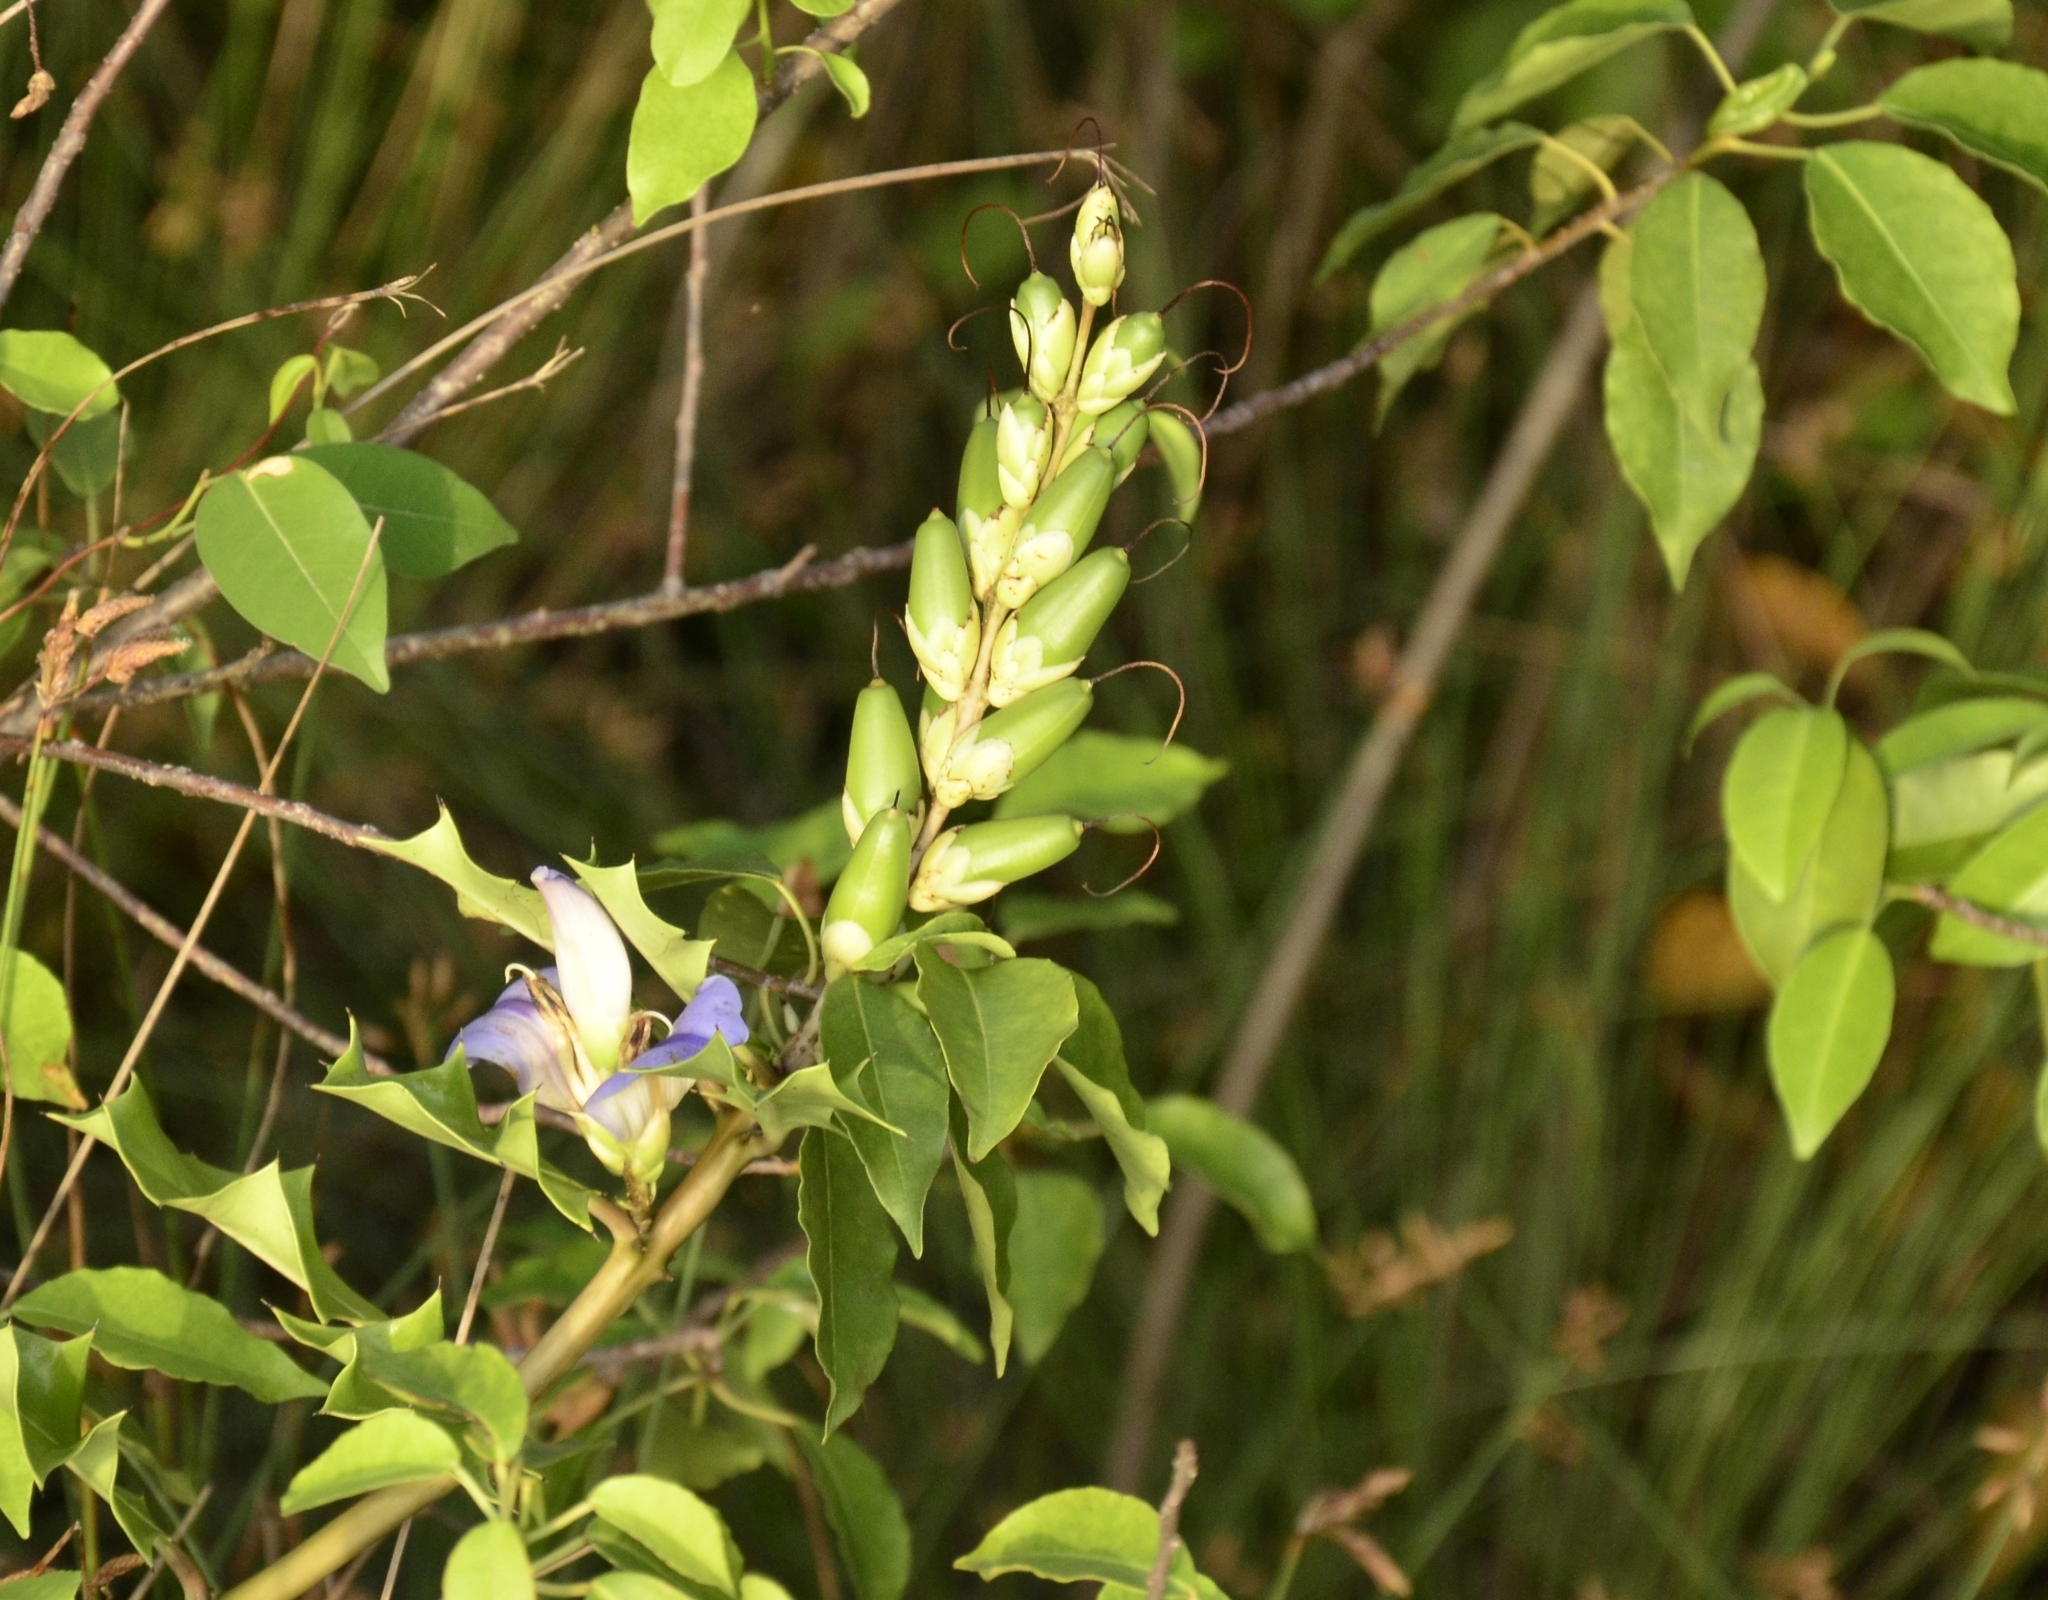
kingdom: Plantae
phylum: Tracheophyta
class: Magnoliopsida
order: Lamiales
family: Acanthaceae
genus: Acanthus
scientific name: Acanthus ilicifolius
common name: Holy mangrove
